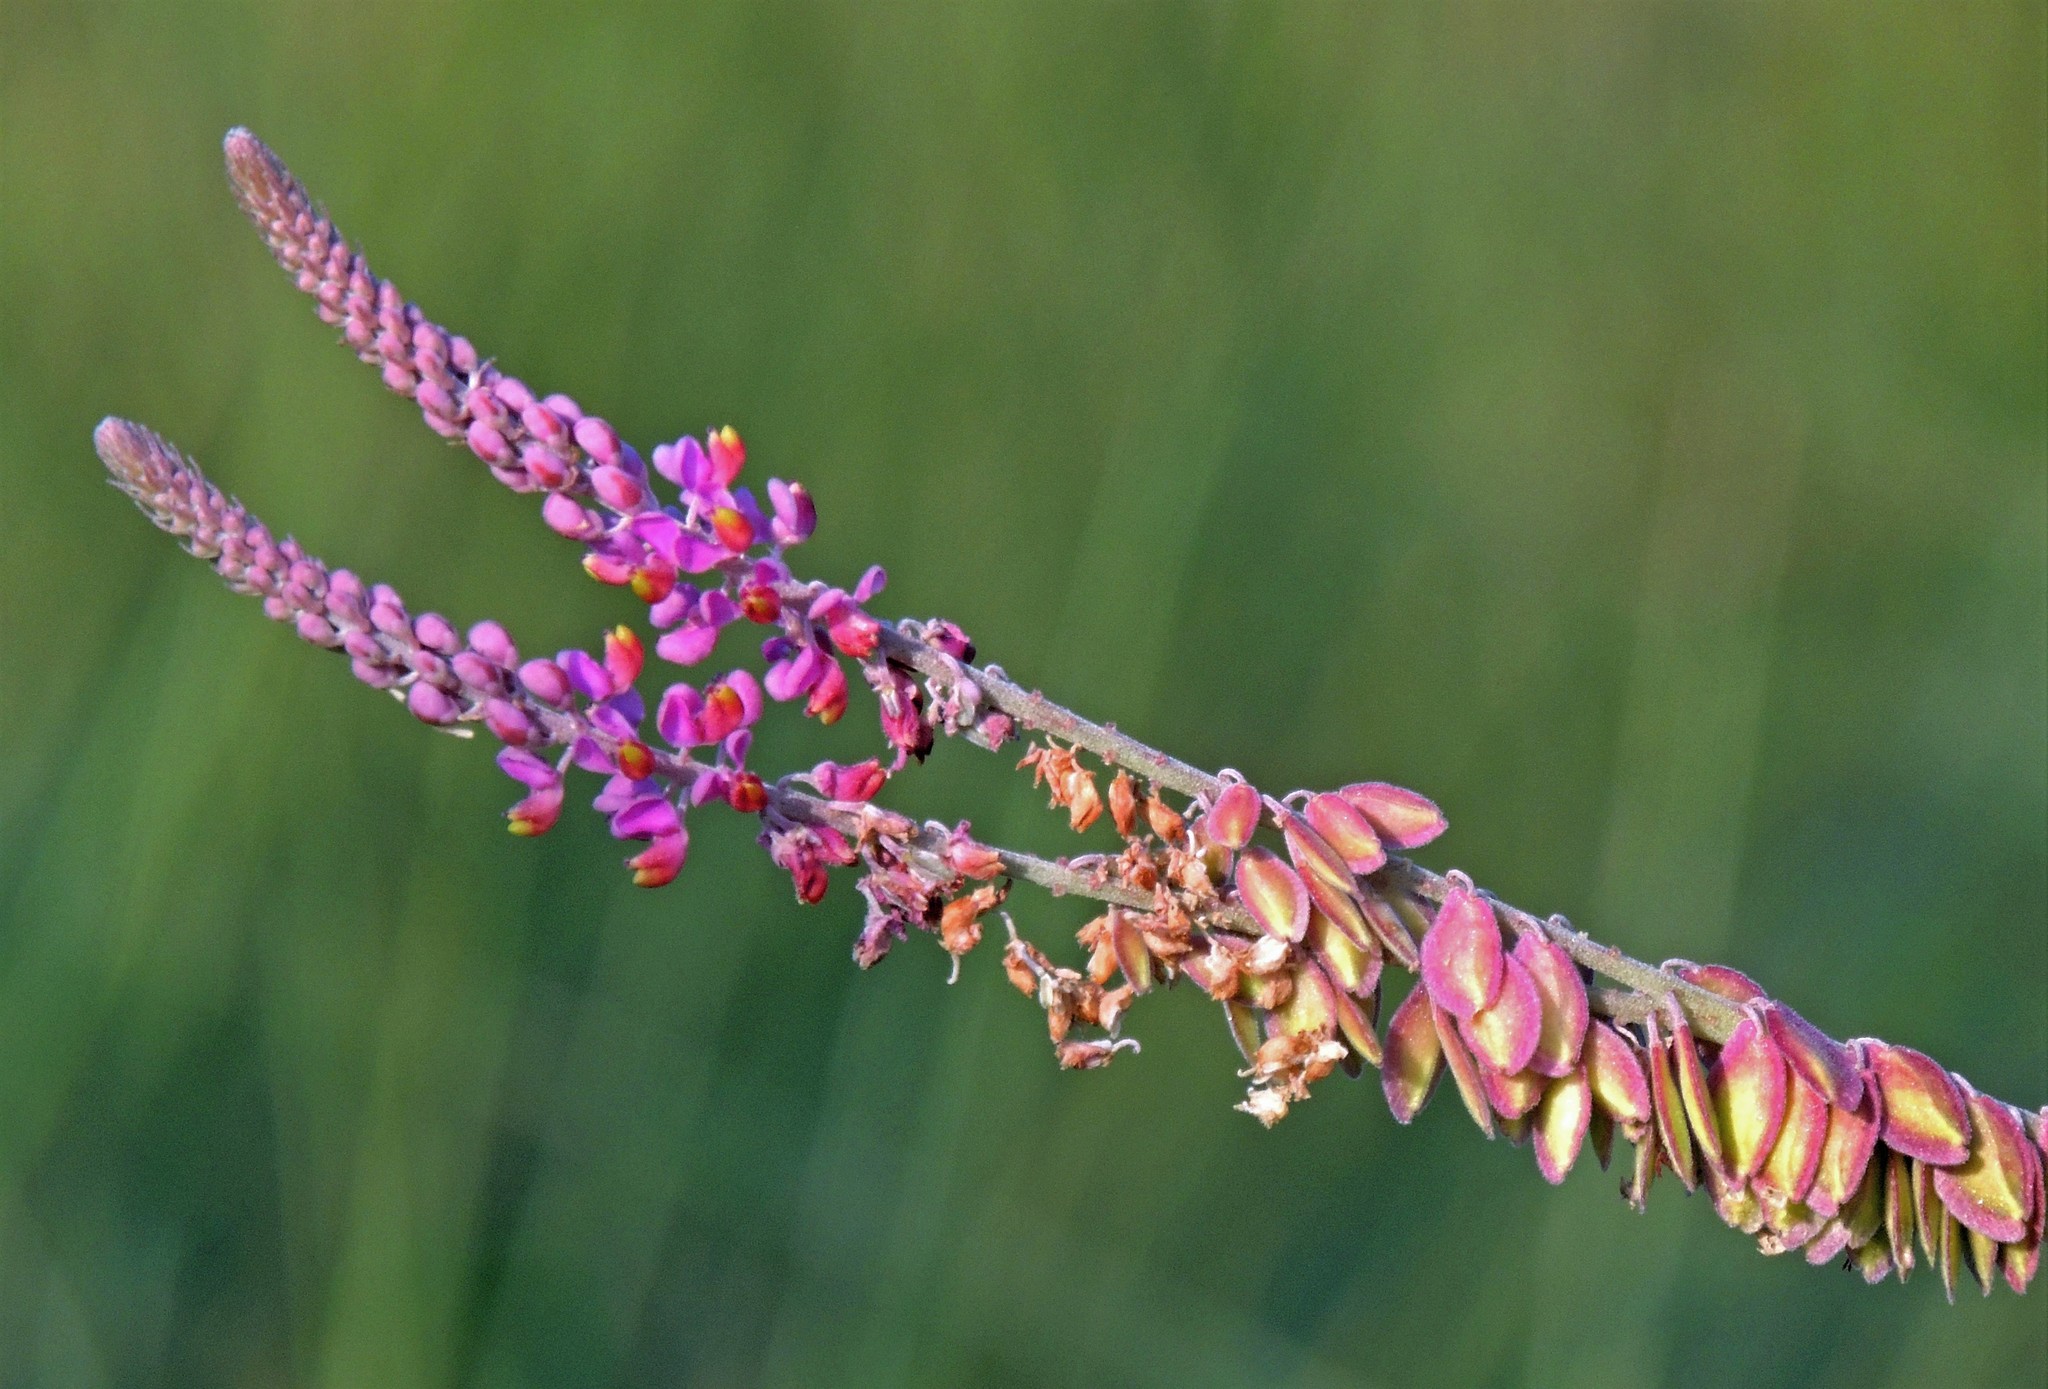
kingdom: Plantae
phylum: Tracheophyta
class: Magnoliopsida
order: Fabales
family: Polygalaceae
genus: Monnina
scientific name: Monnina tristaniana
